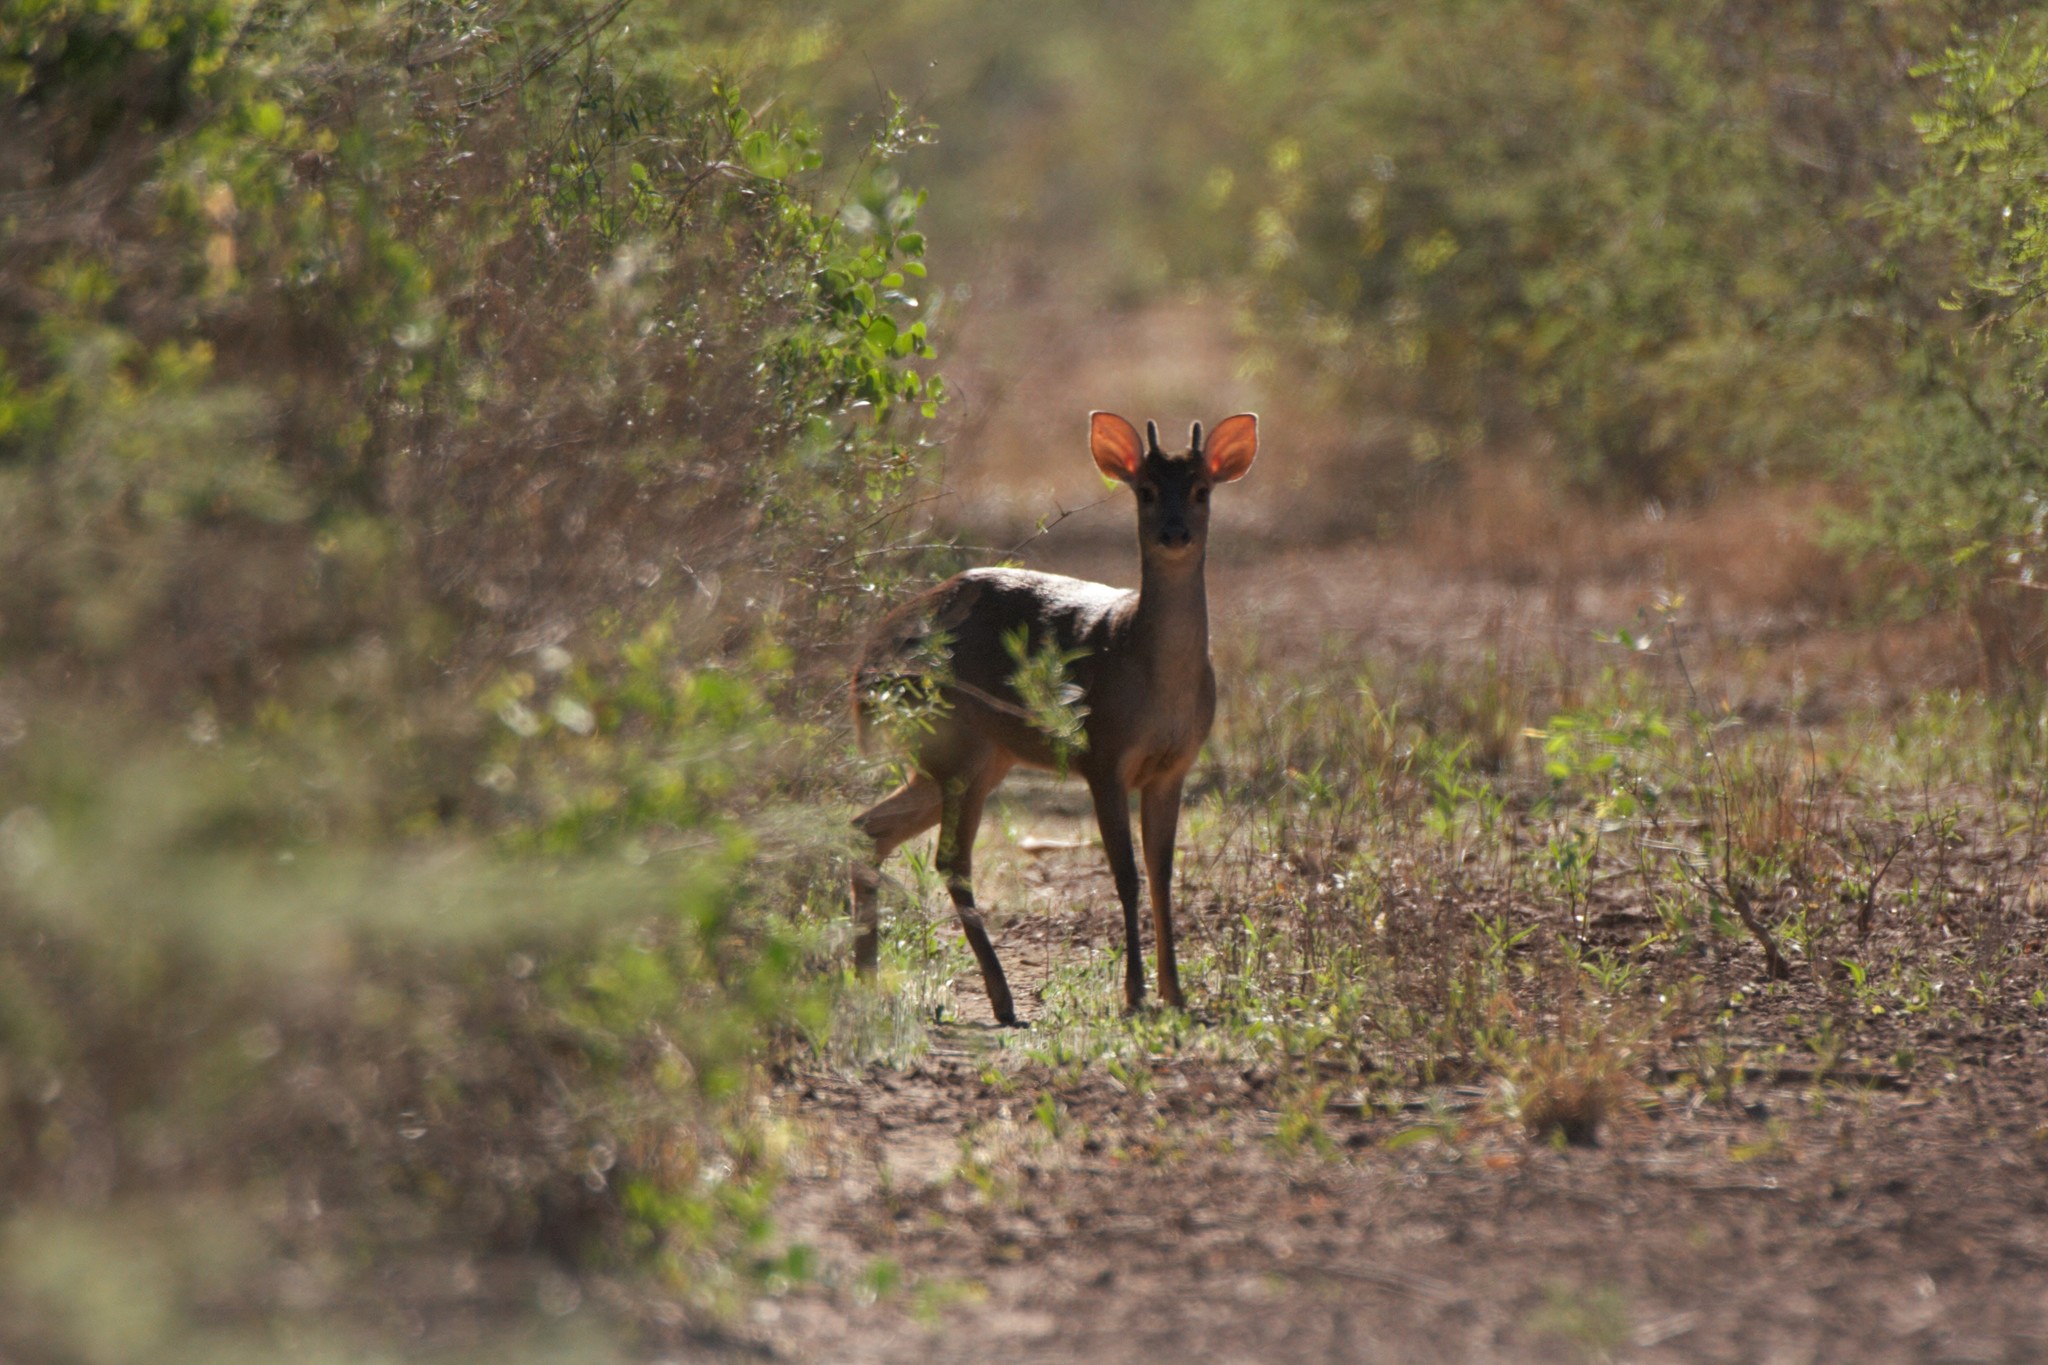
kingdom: Animalia
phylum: Chordata
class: Mammalia
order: Artiodactyla
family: Cervidae
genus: Mazama
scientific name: Mazama gouazoubira
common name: Gray brocket
